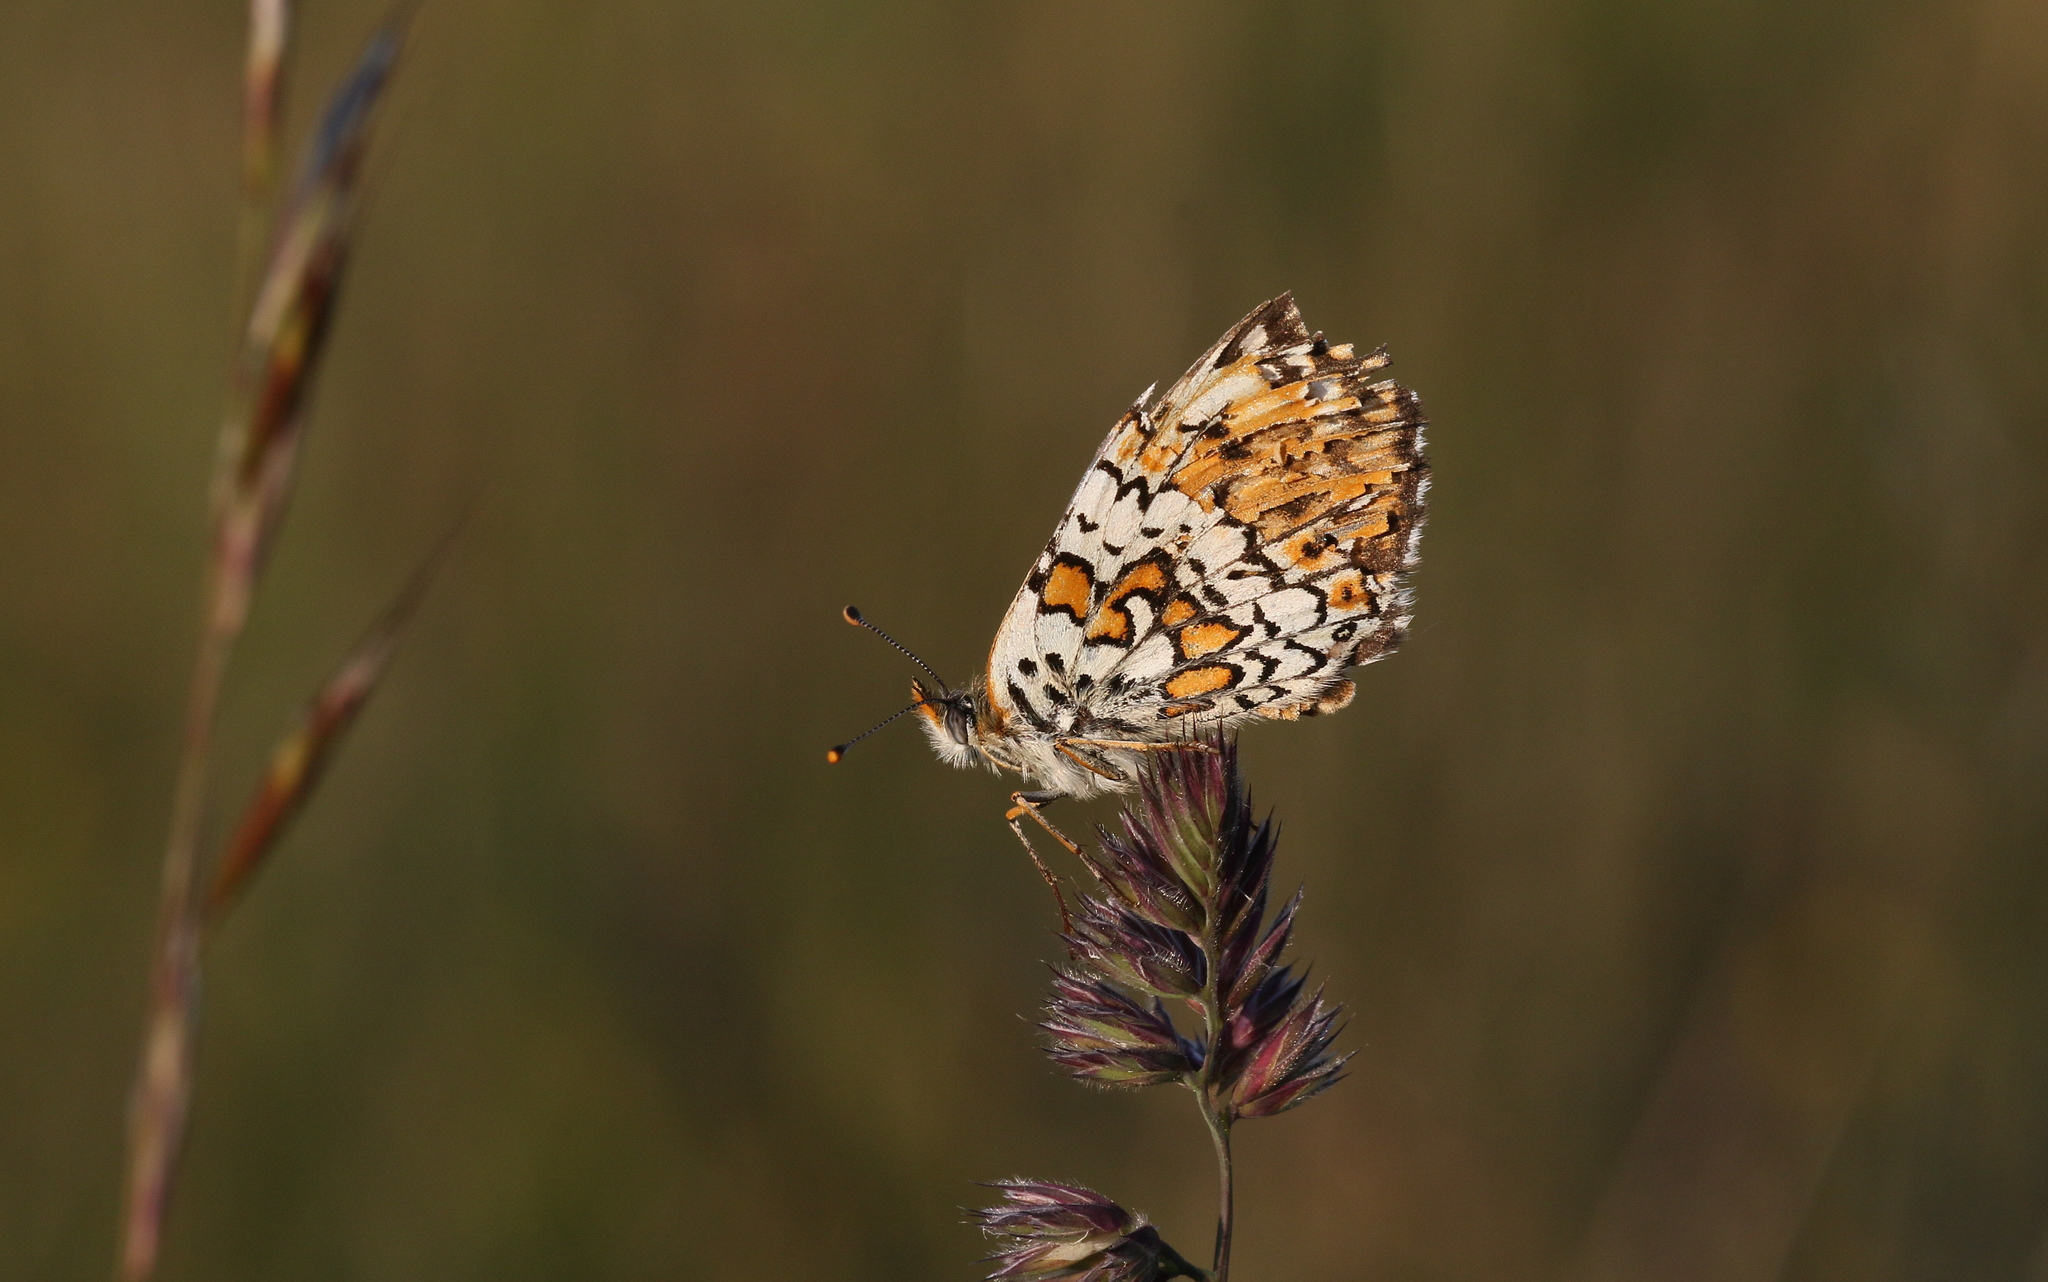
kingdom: Animalia
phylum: Arthropoda
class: Insecta
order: Lepidoptera
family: Nymphalidae
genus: Melitaea
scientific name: Melitaea cinxia
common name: Glanville fritillary
